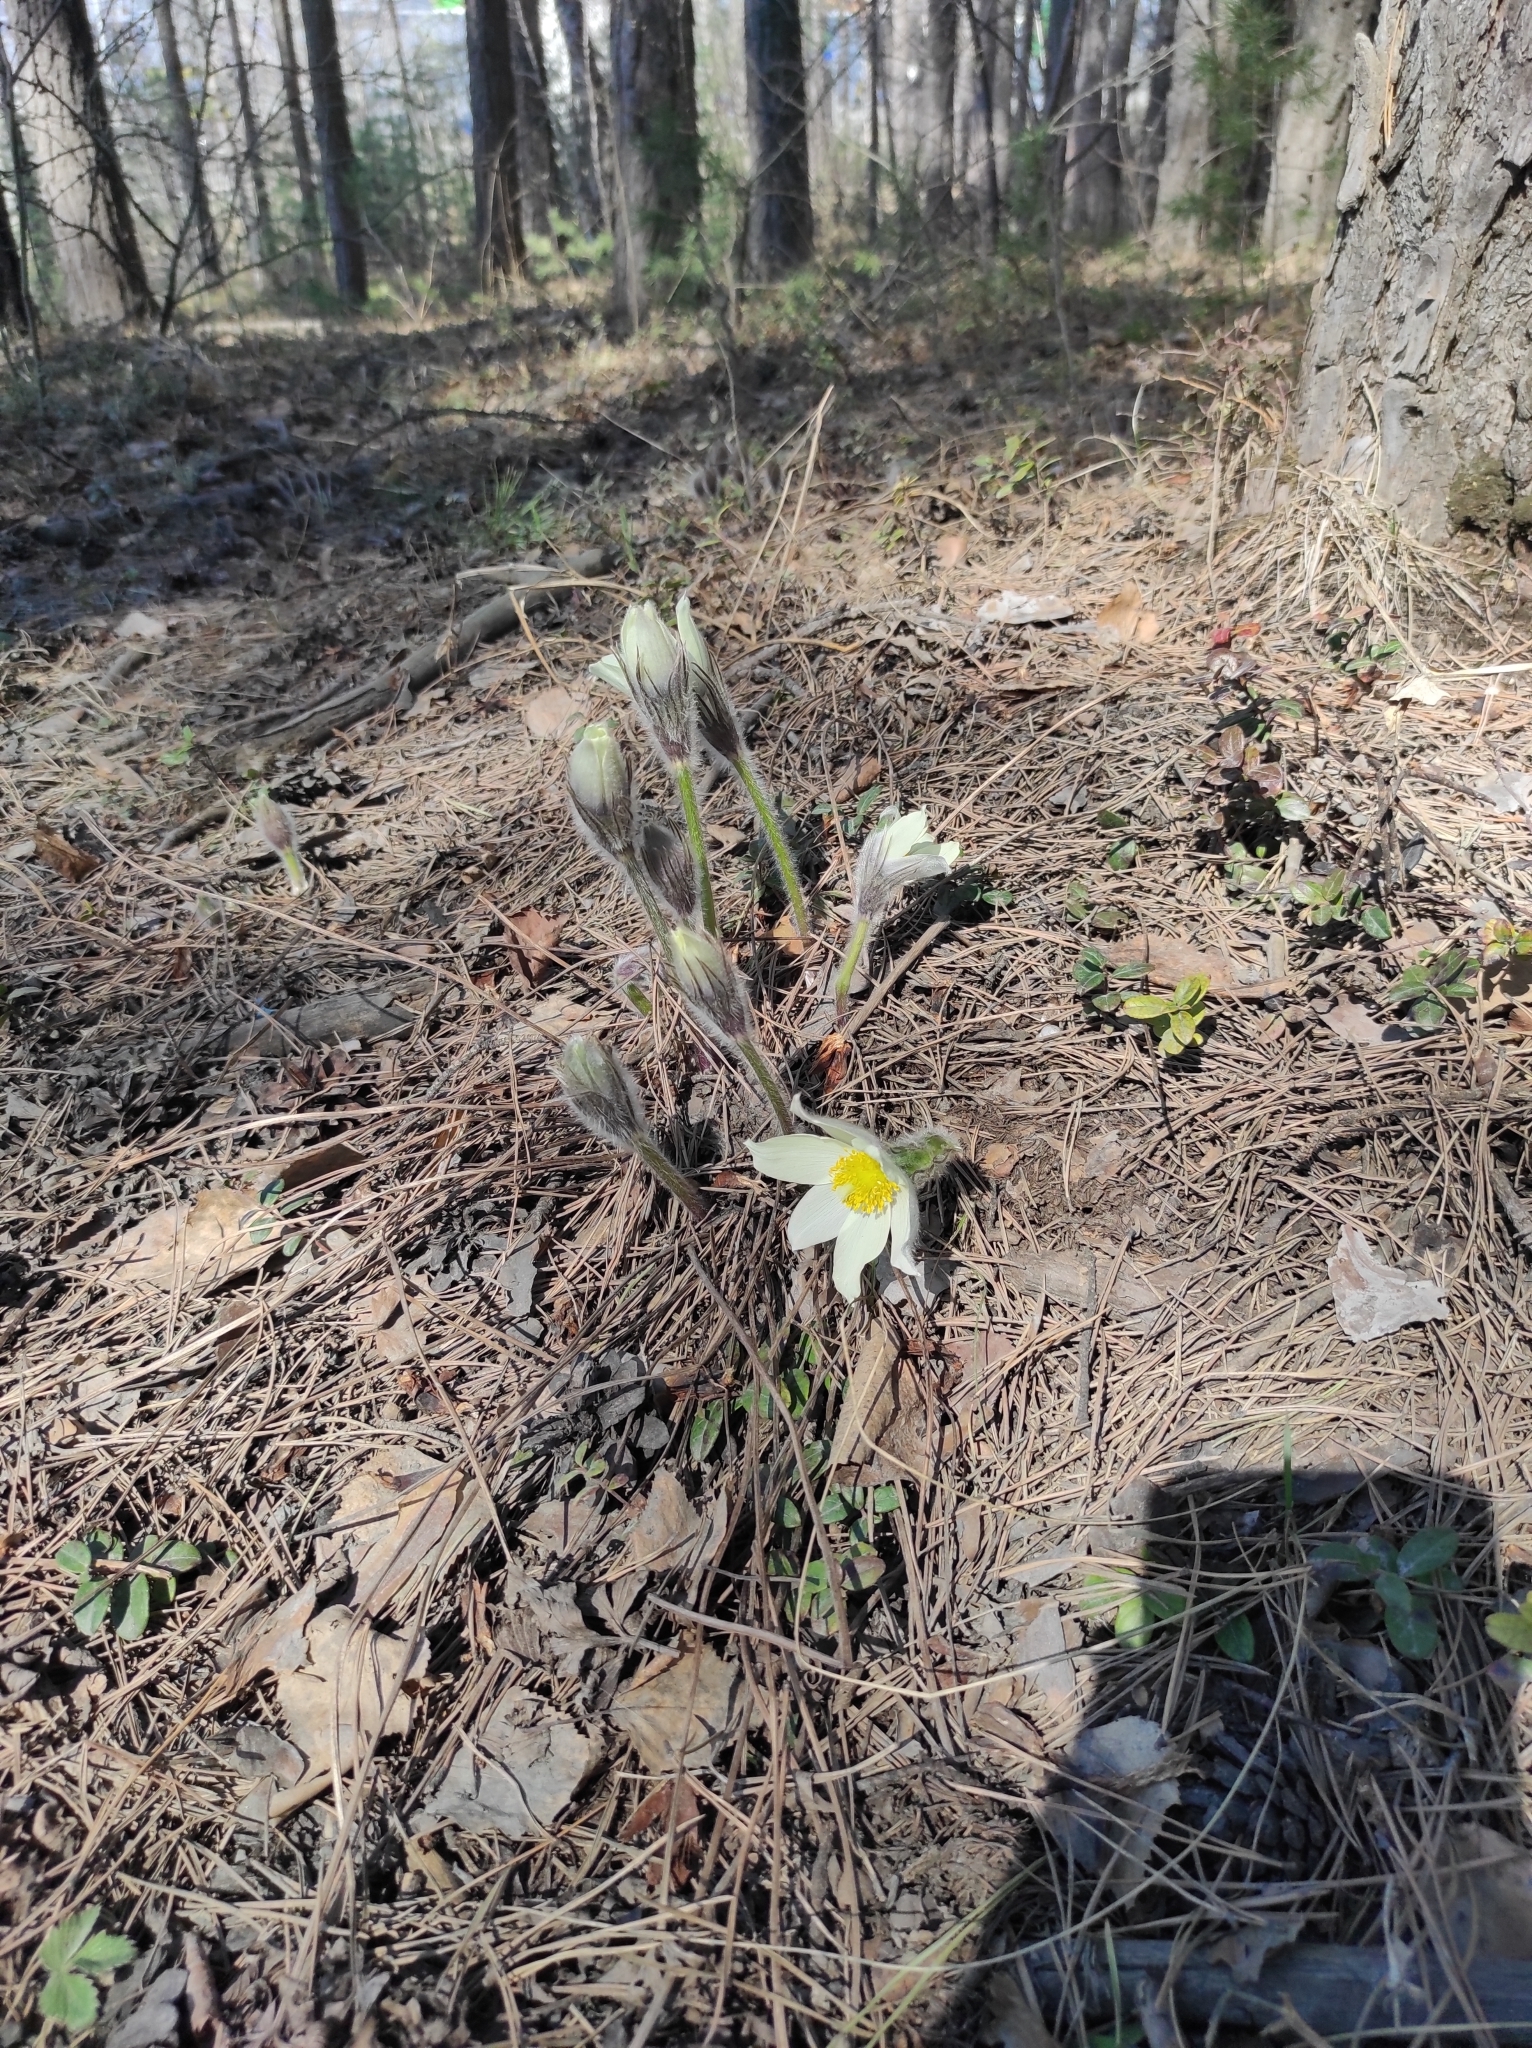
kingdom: Plantae
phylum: Tracheophyta
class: Magnoliopsida
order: Ranunculales
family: Ranunculaceae
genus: Pulsatilla
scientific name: Pulsatilla patens
